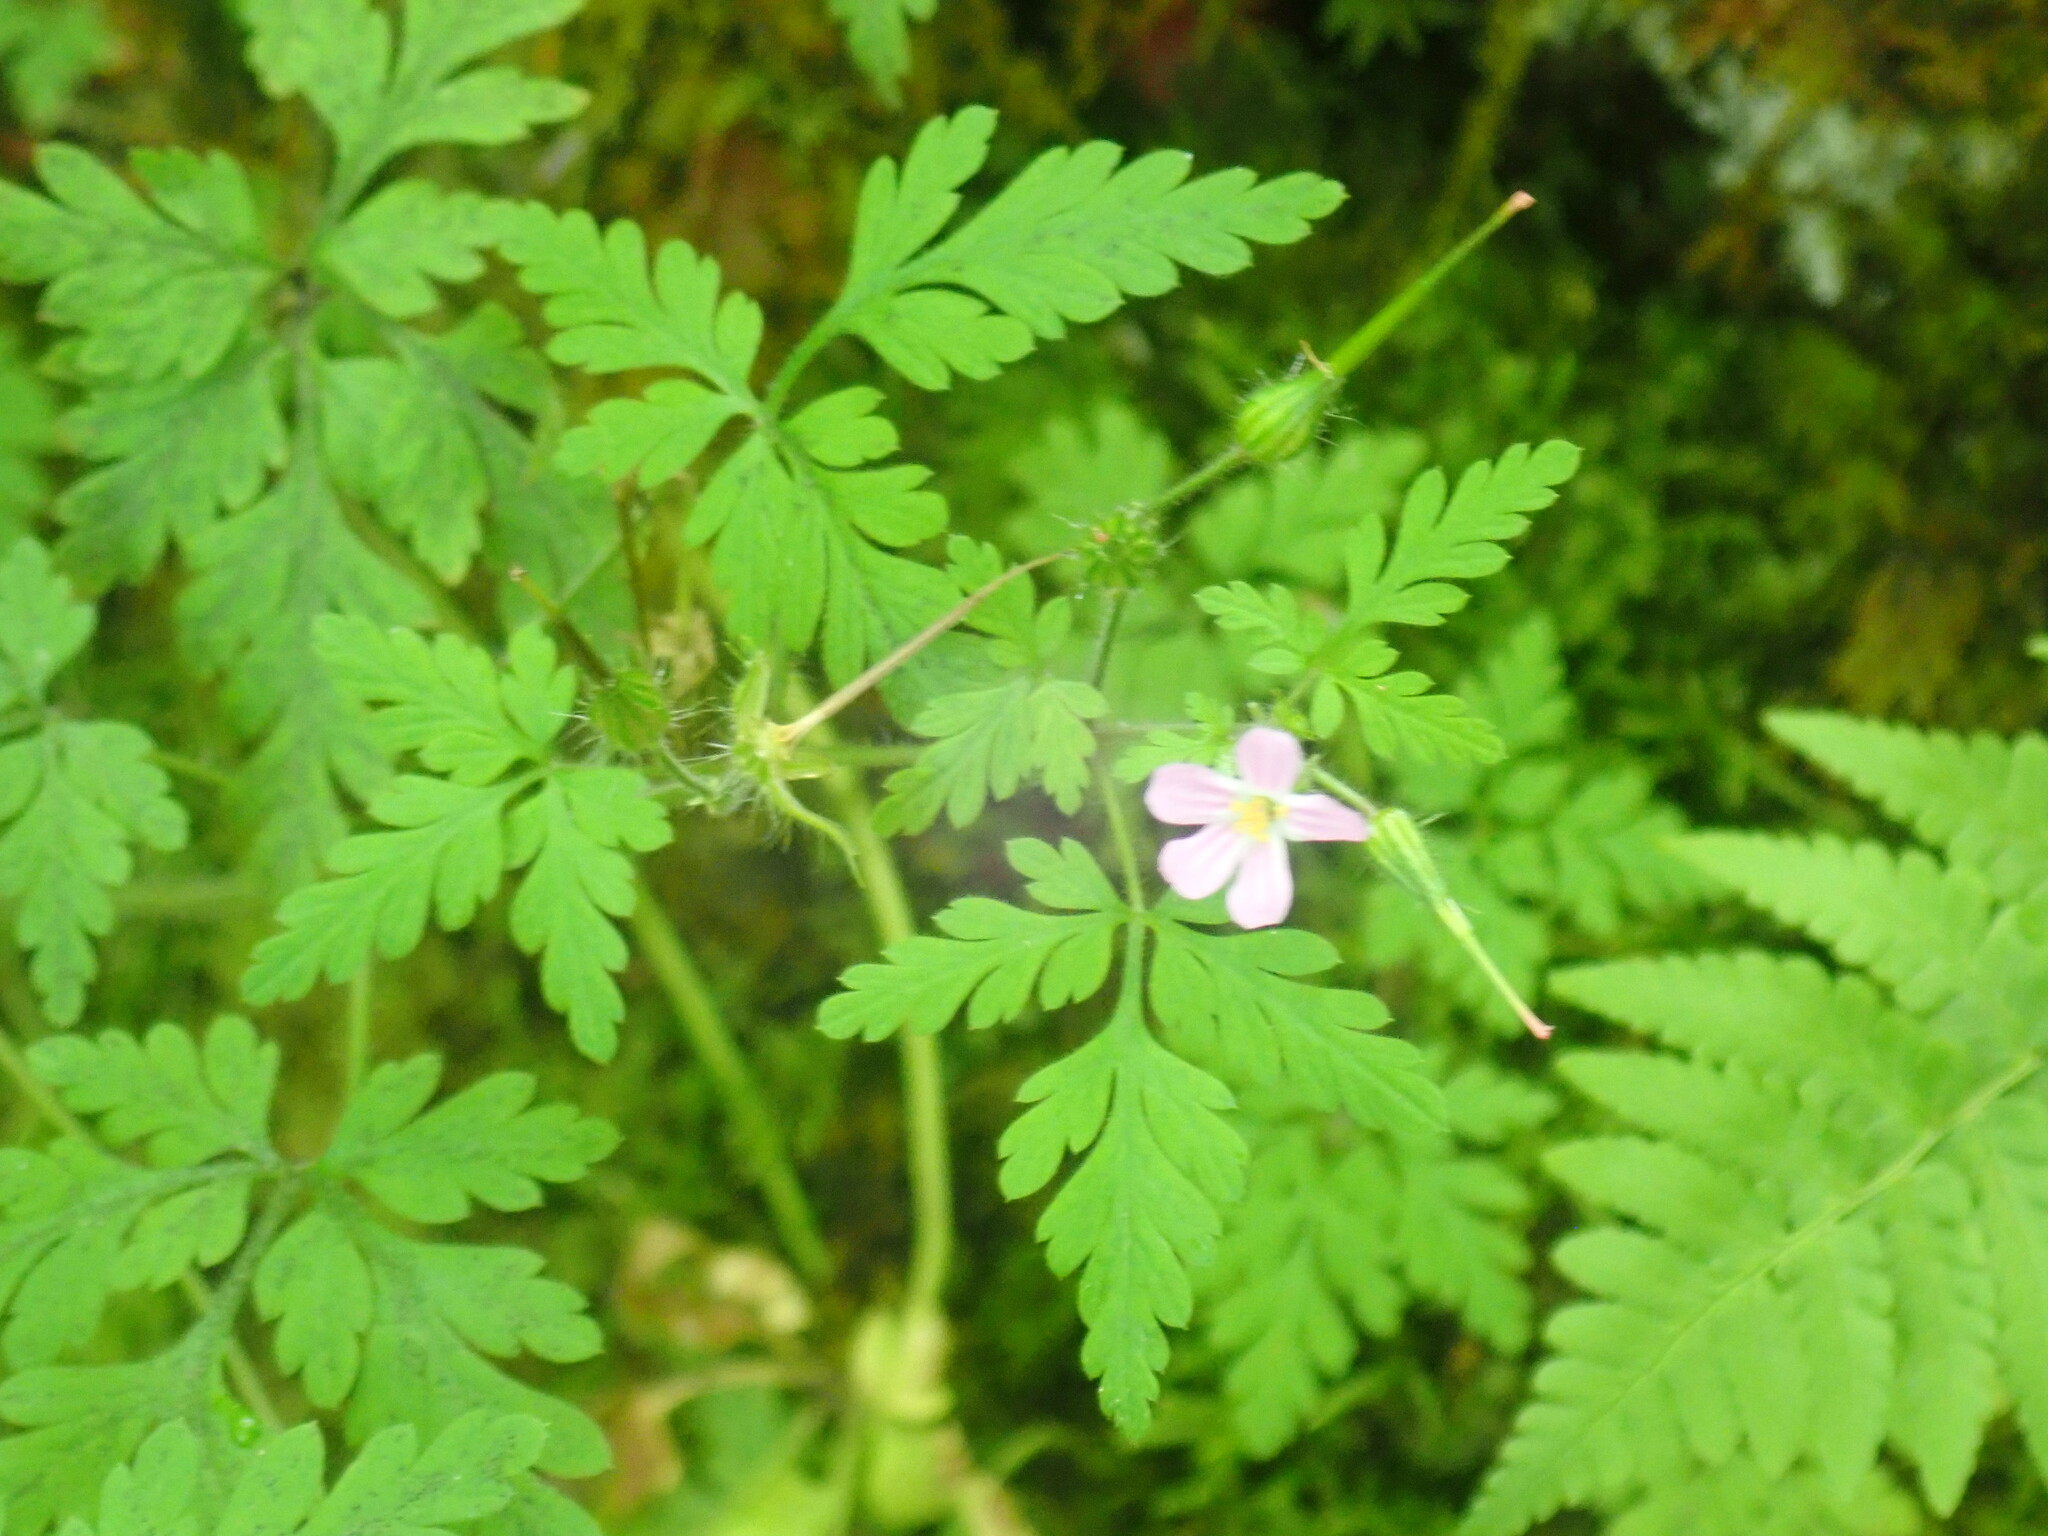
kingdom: Plantae
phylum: Tracheophyta
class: Magnoliopsida
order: Geraniales
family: Geraniaceae
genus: Geranium
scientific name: Geranium robertianum
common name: Herb-robert
